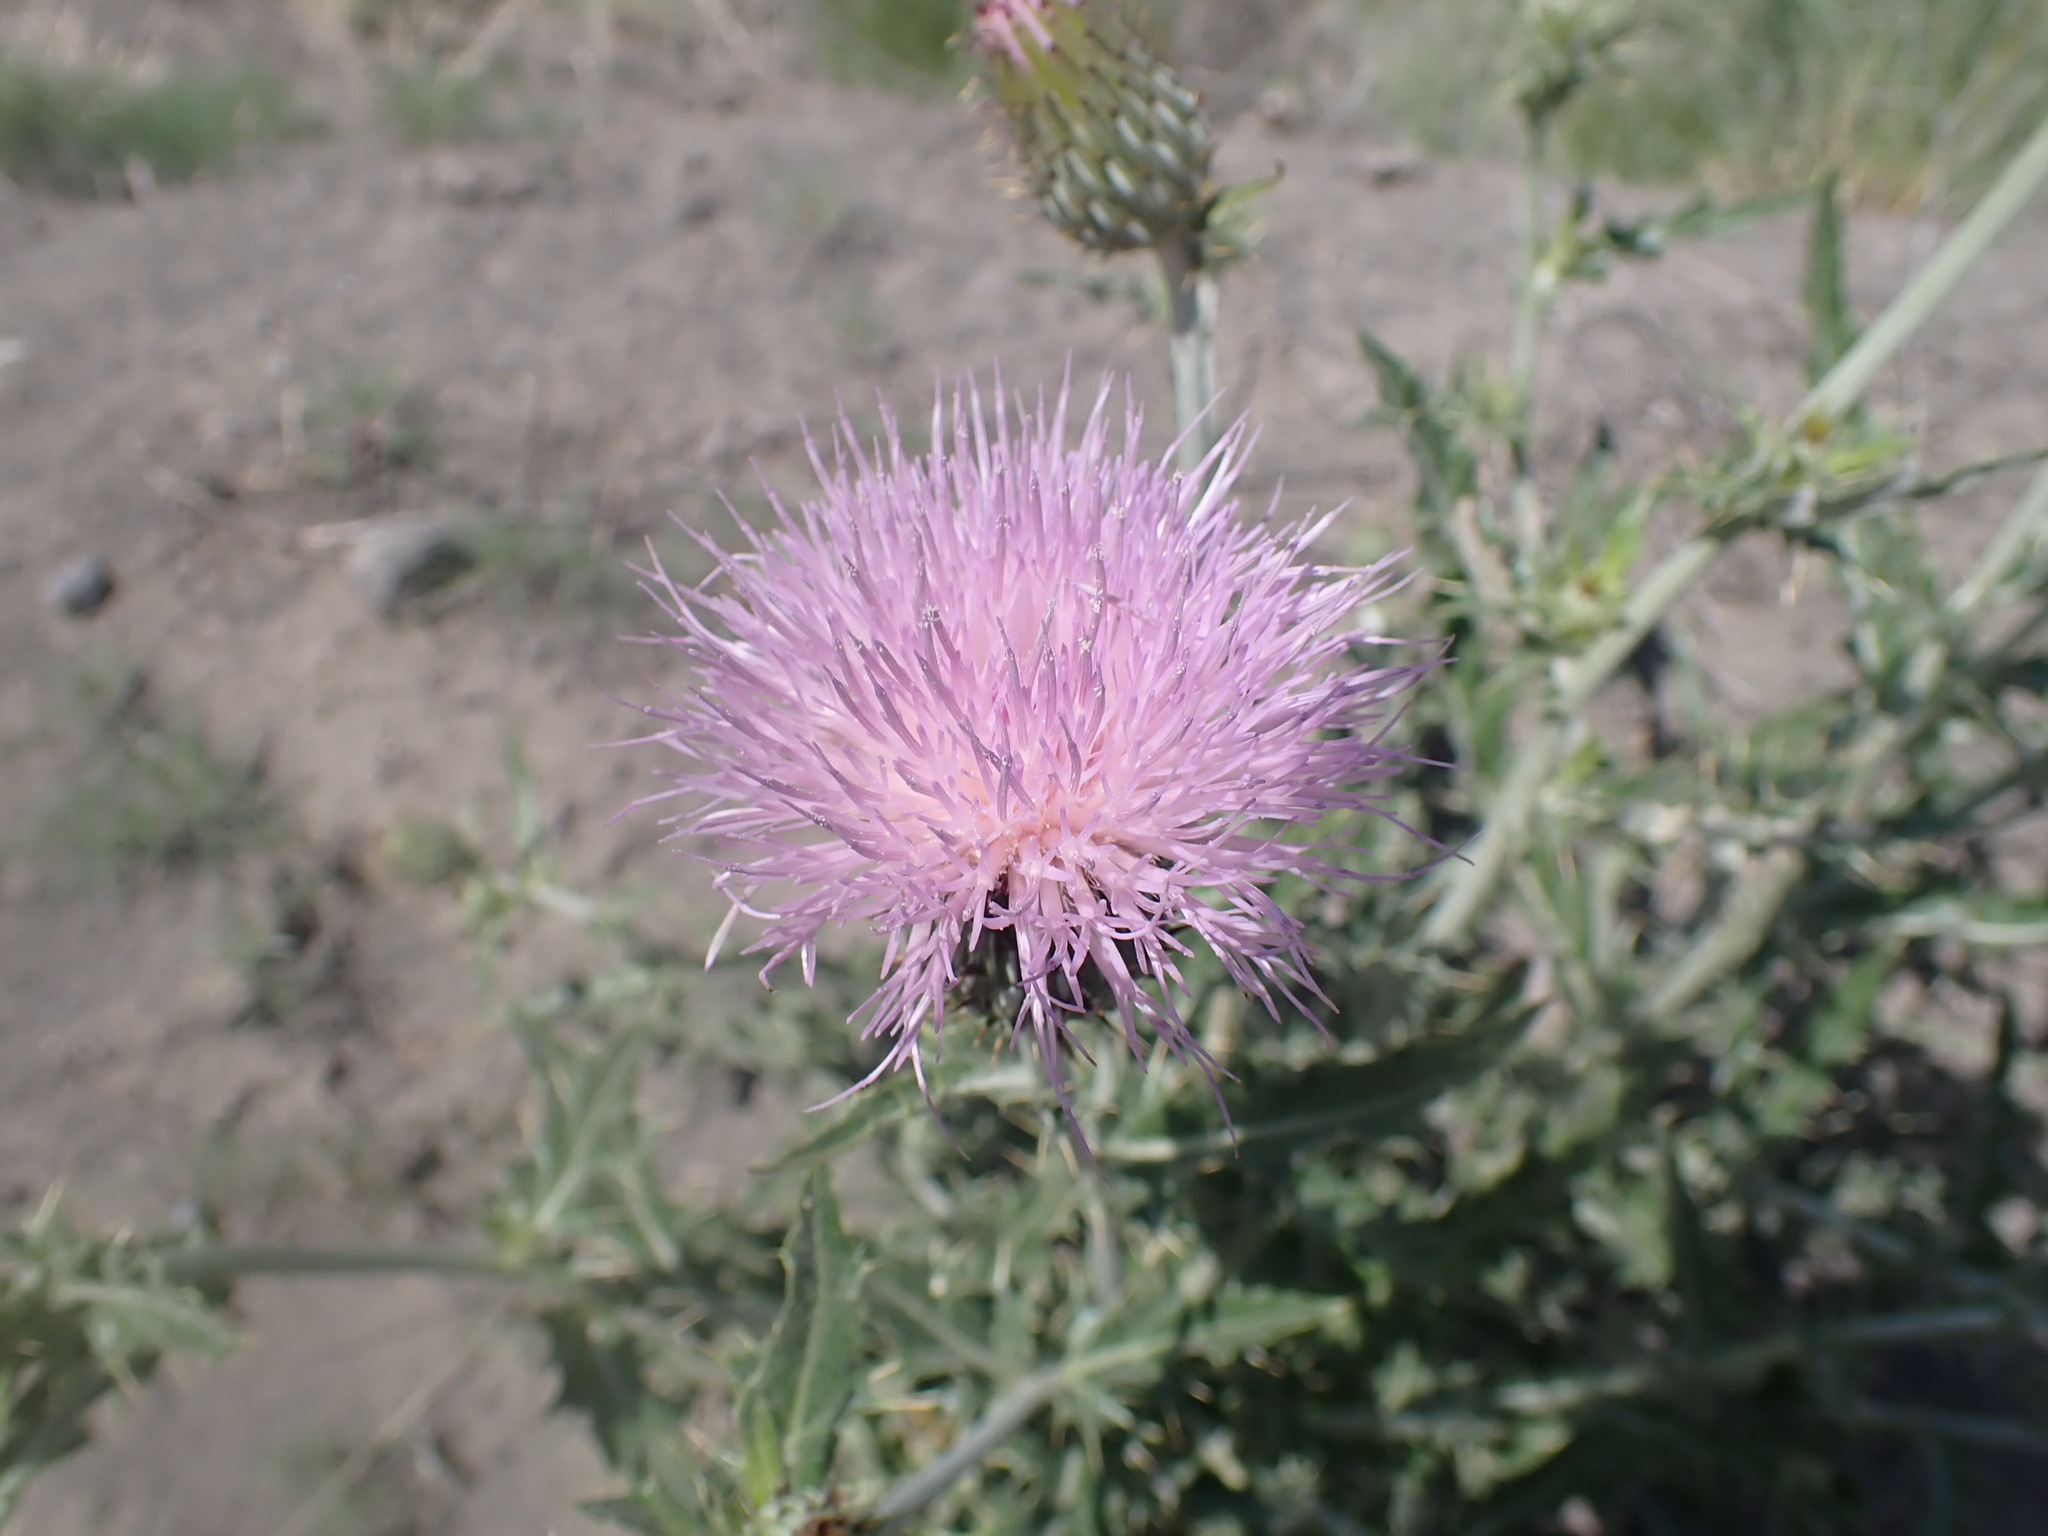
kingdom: Plantae
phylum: Tracheophyta
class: Magnoliopsida
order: Asterales
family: Asteraceae
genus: Cirsium
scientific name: Cirsium undulatum
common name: Pasture thistle
